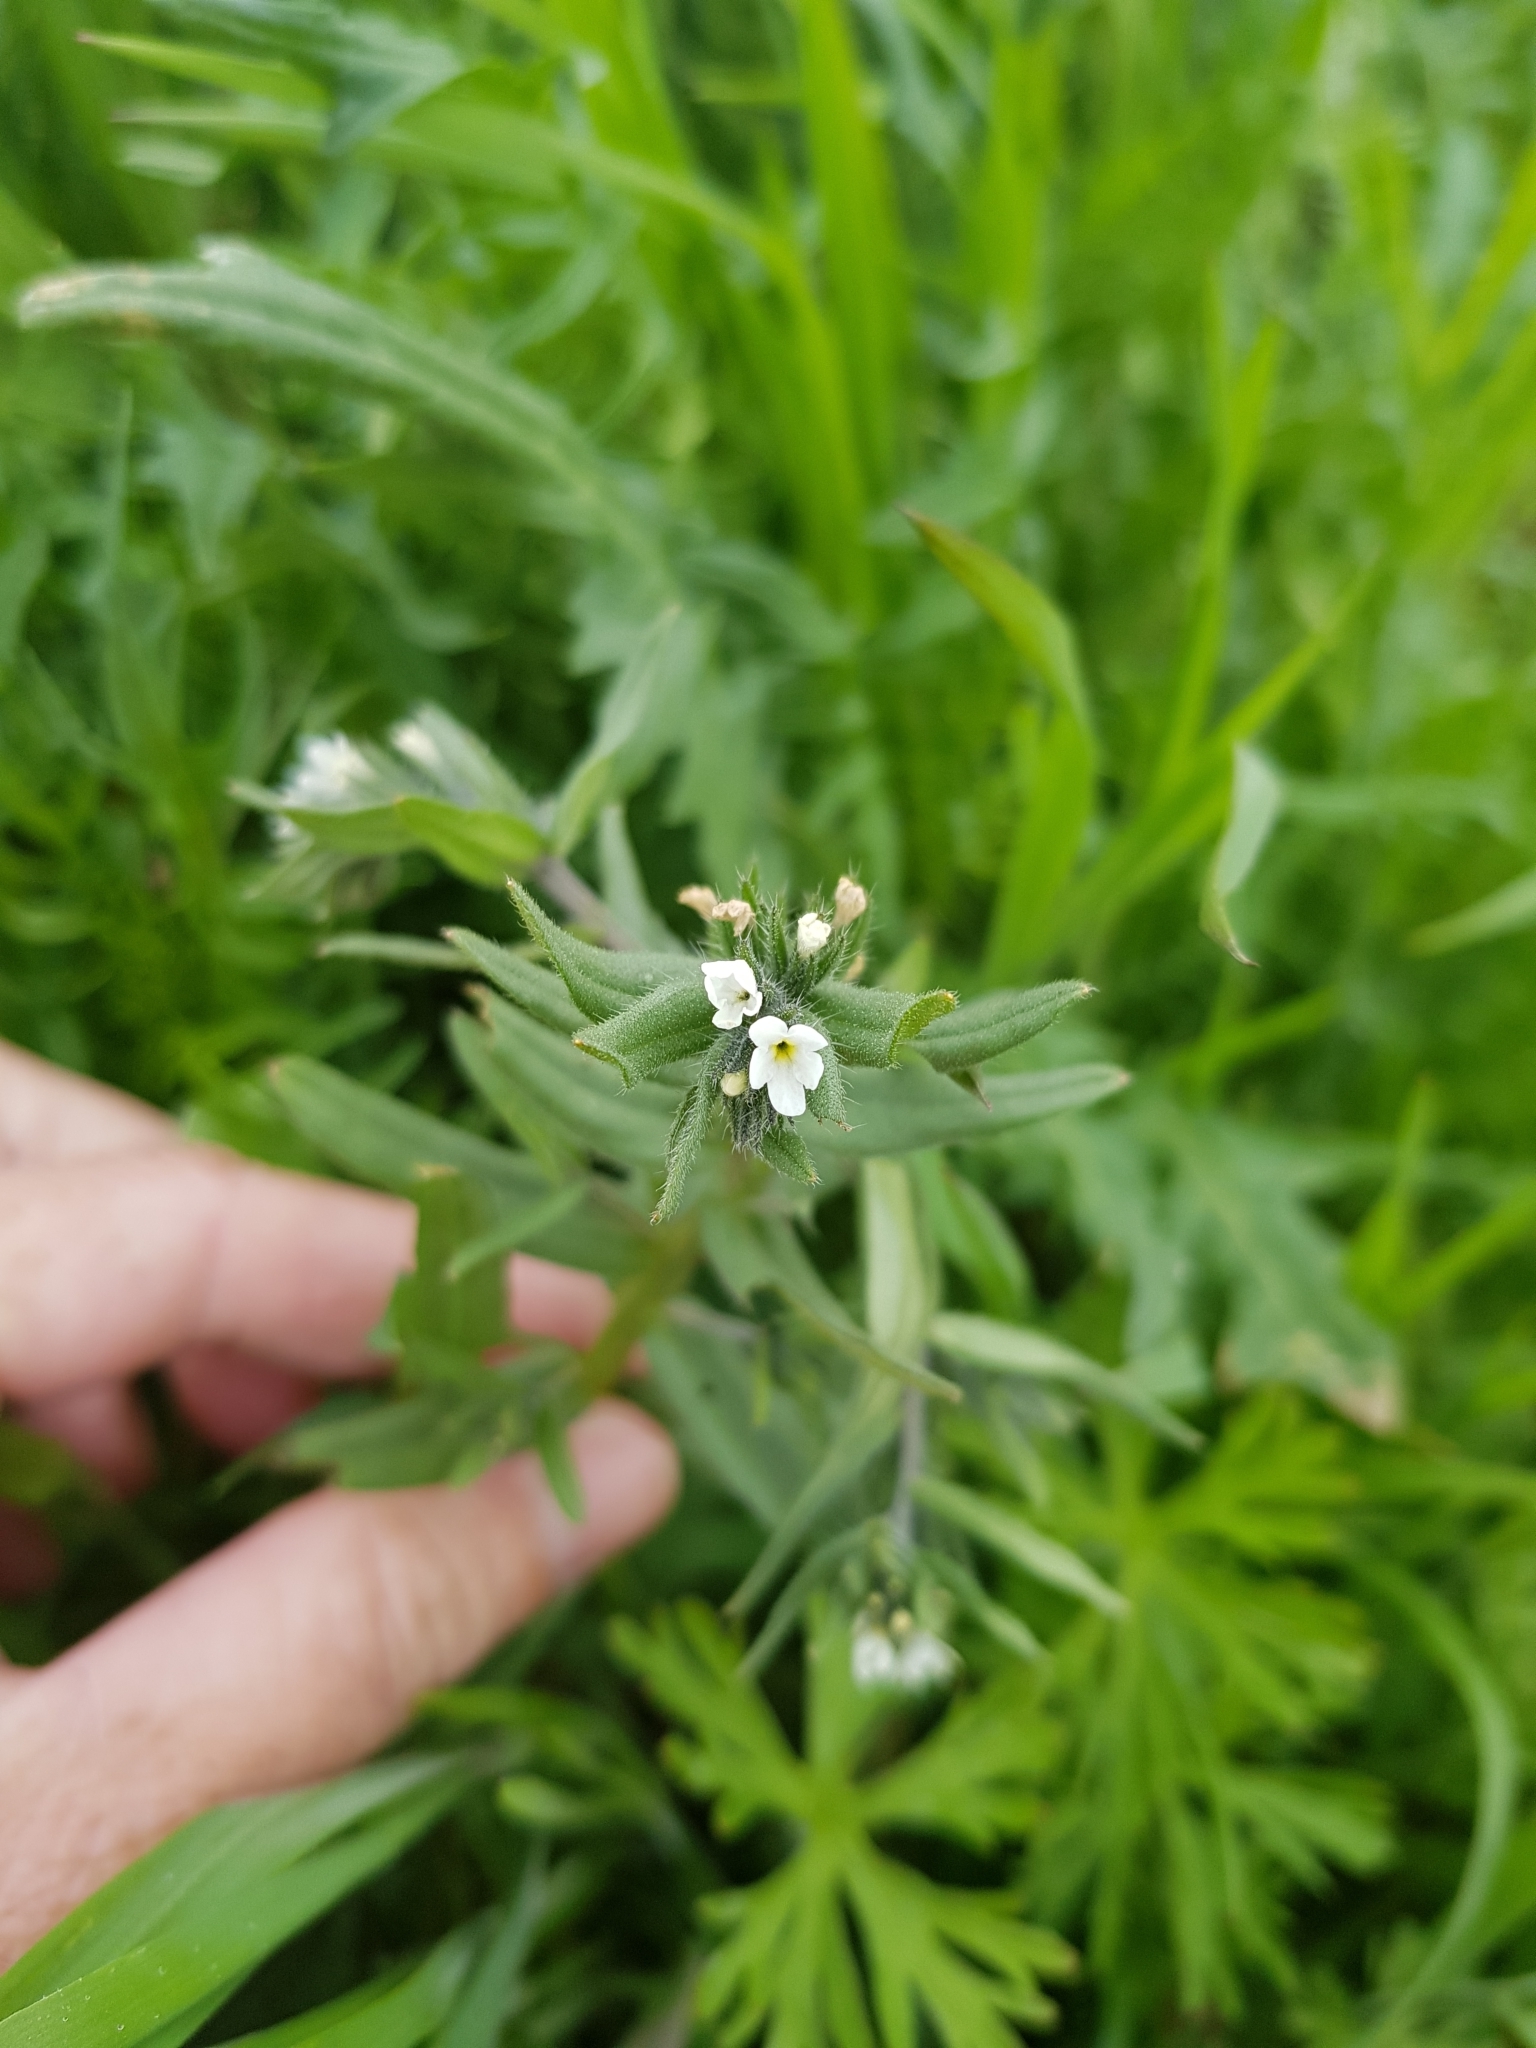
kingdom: Plantae
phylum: Tracheophyta
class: Magnoliopsida
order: Boraginales
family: Boraginaceae
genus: Buglossoides
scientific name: Buglossoides arvensis
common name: Corn gromwell
